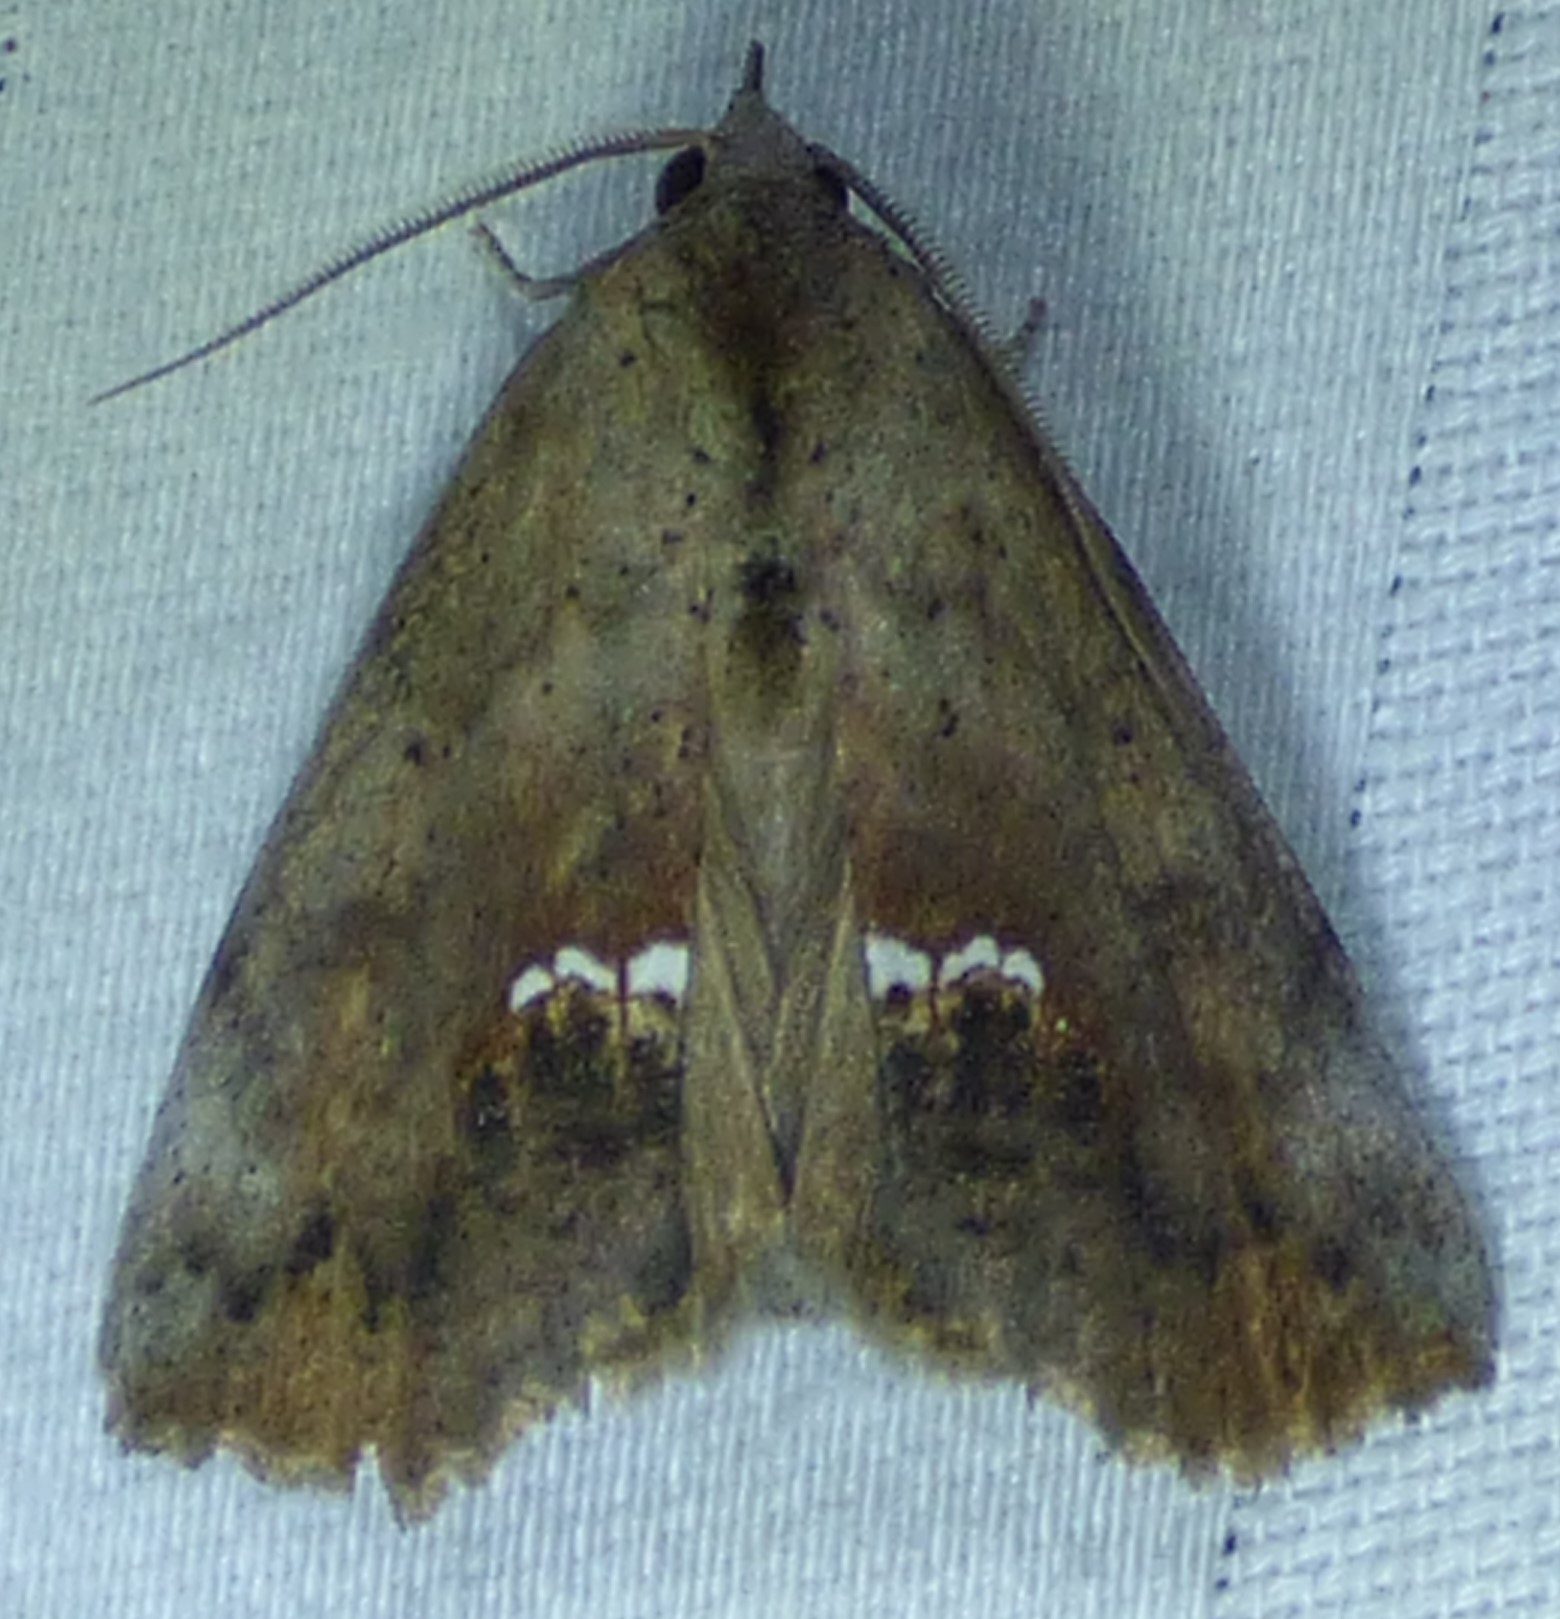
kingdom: Animalia
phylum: Arthropoda
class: Insecta
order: Lepidoptera
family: Erebidae
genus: Hypsoropha
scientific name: Hypsoropha hormos
